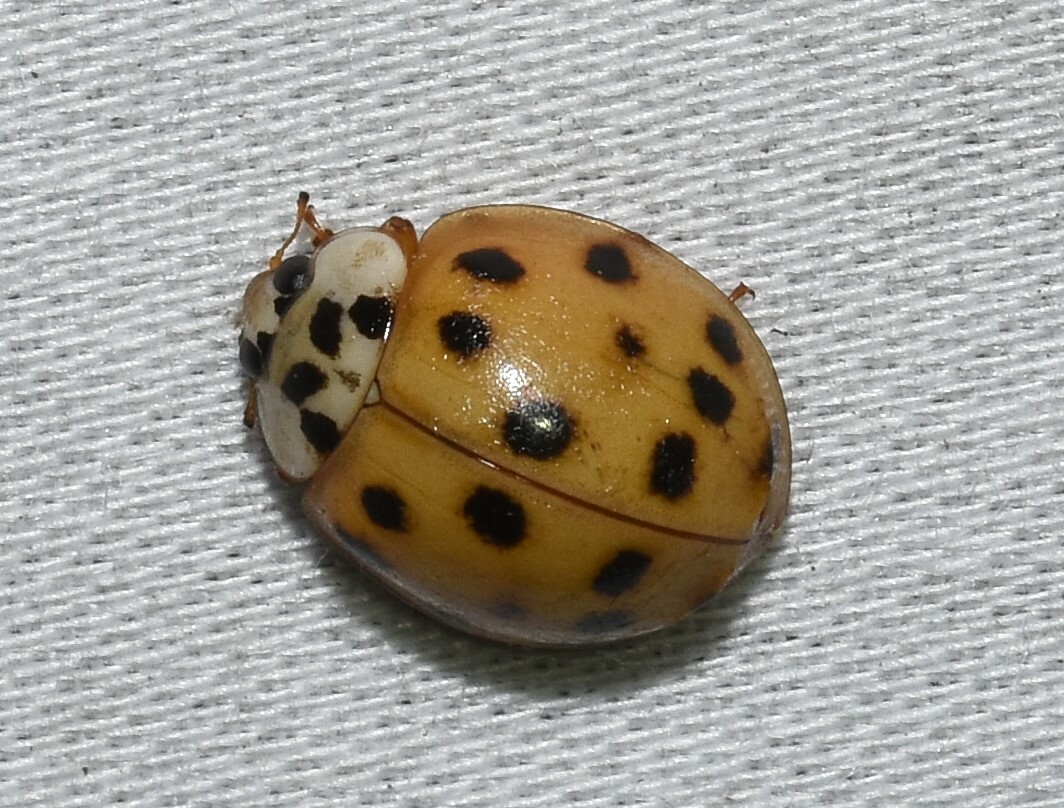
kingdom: Animalia
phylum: Arthropoda
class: Insecta
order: Coleoptera
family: Coccinellidae
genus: Harmonia
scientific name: Harmonia axyridis
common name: Harlequin ladybird
